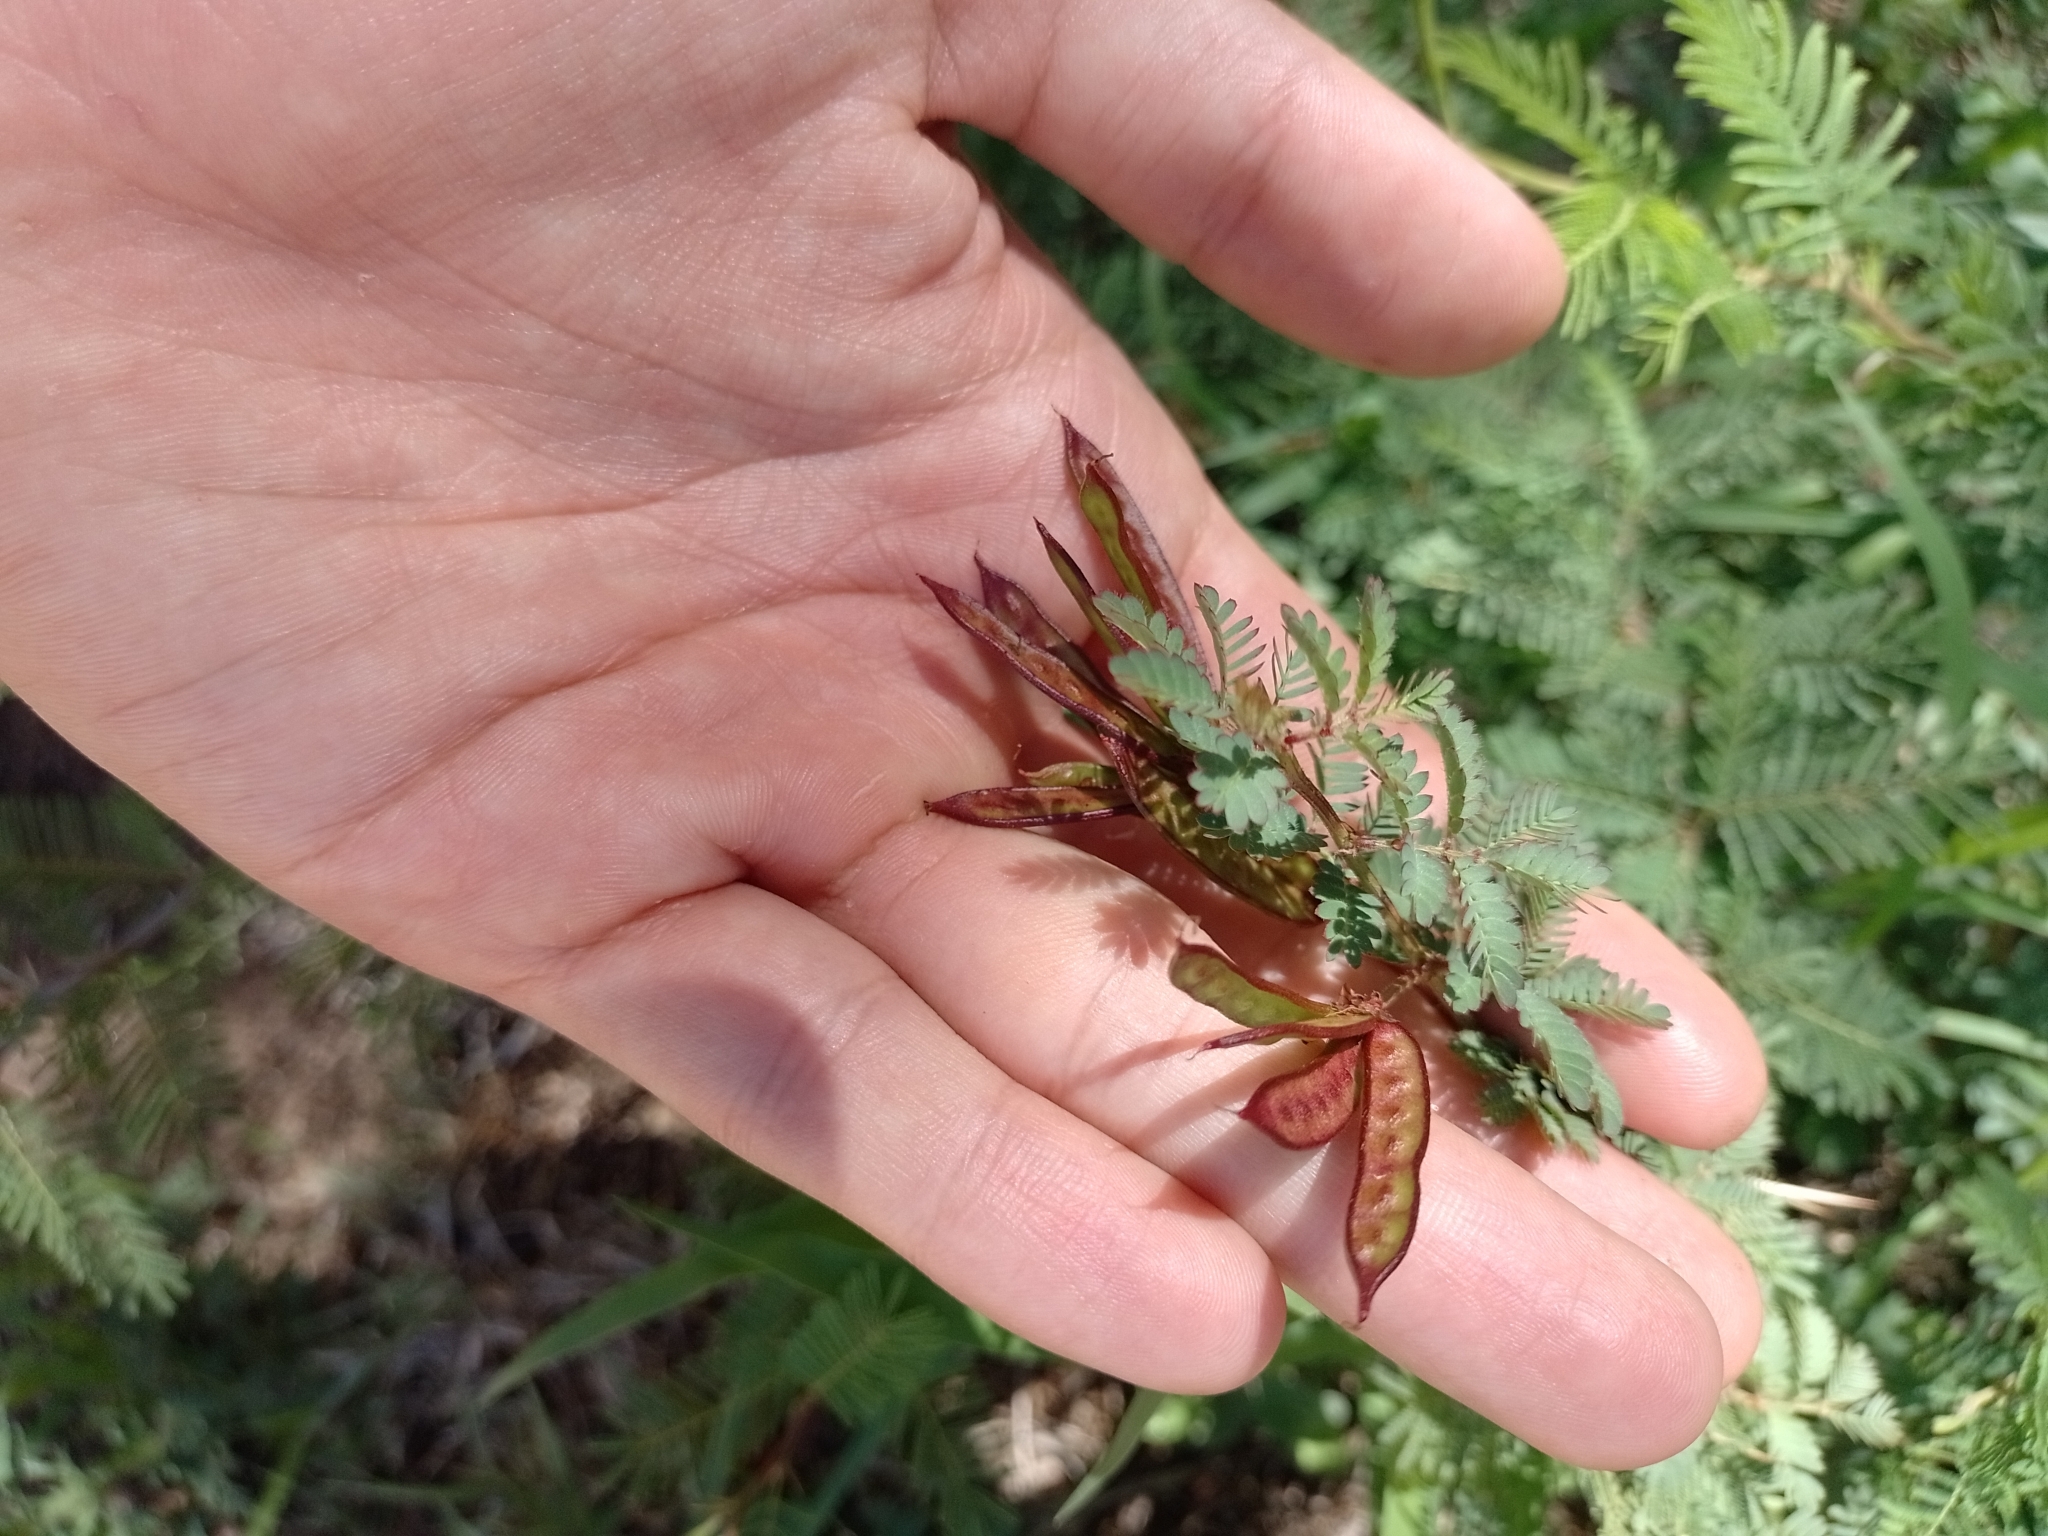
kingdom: Plantae
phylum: Tracheophyta
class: Magnoliopsida
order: Fabales
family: Fabaceae
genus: Desmanthus
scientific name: Desmanthus acuminatus
